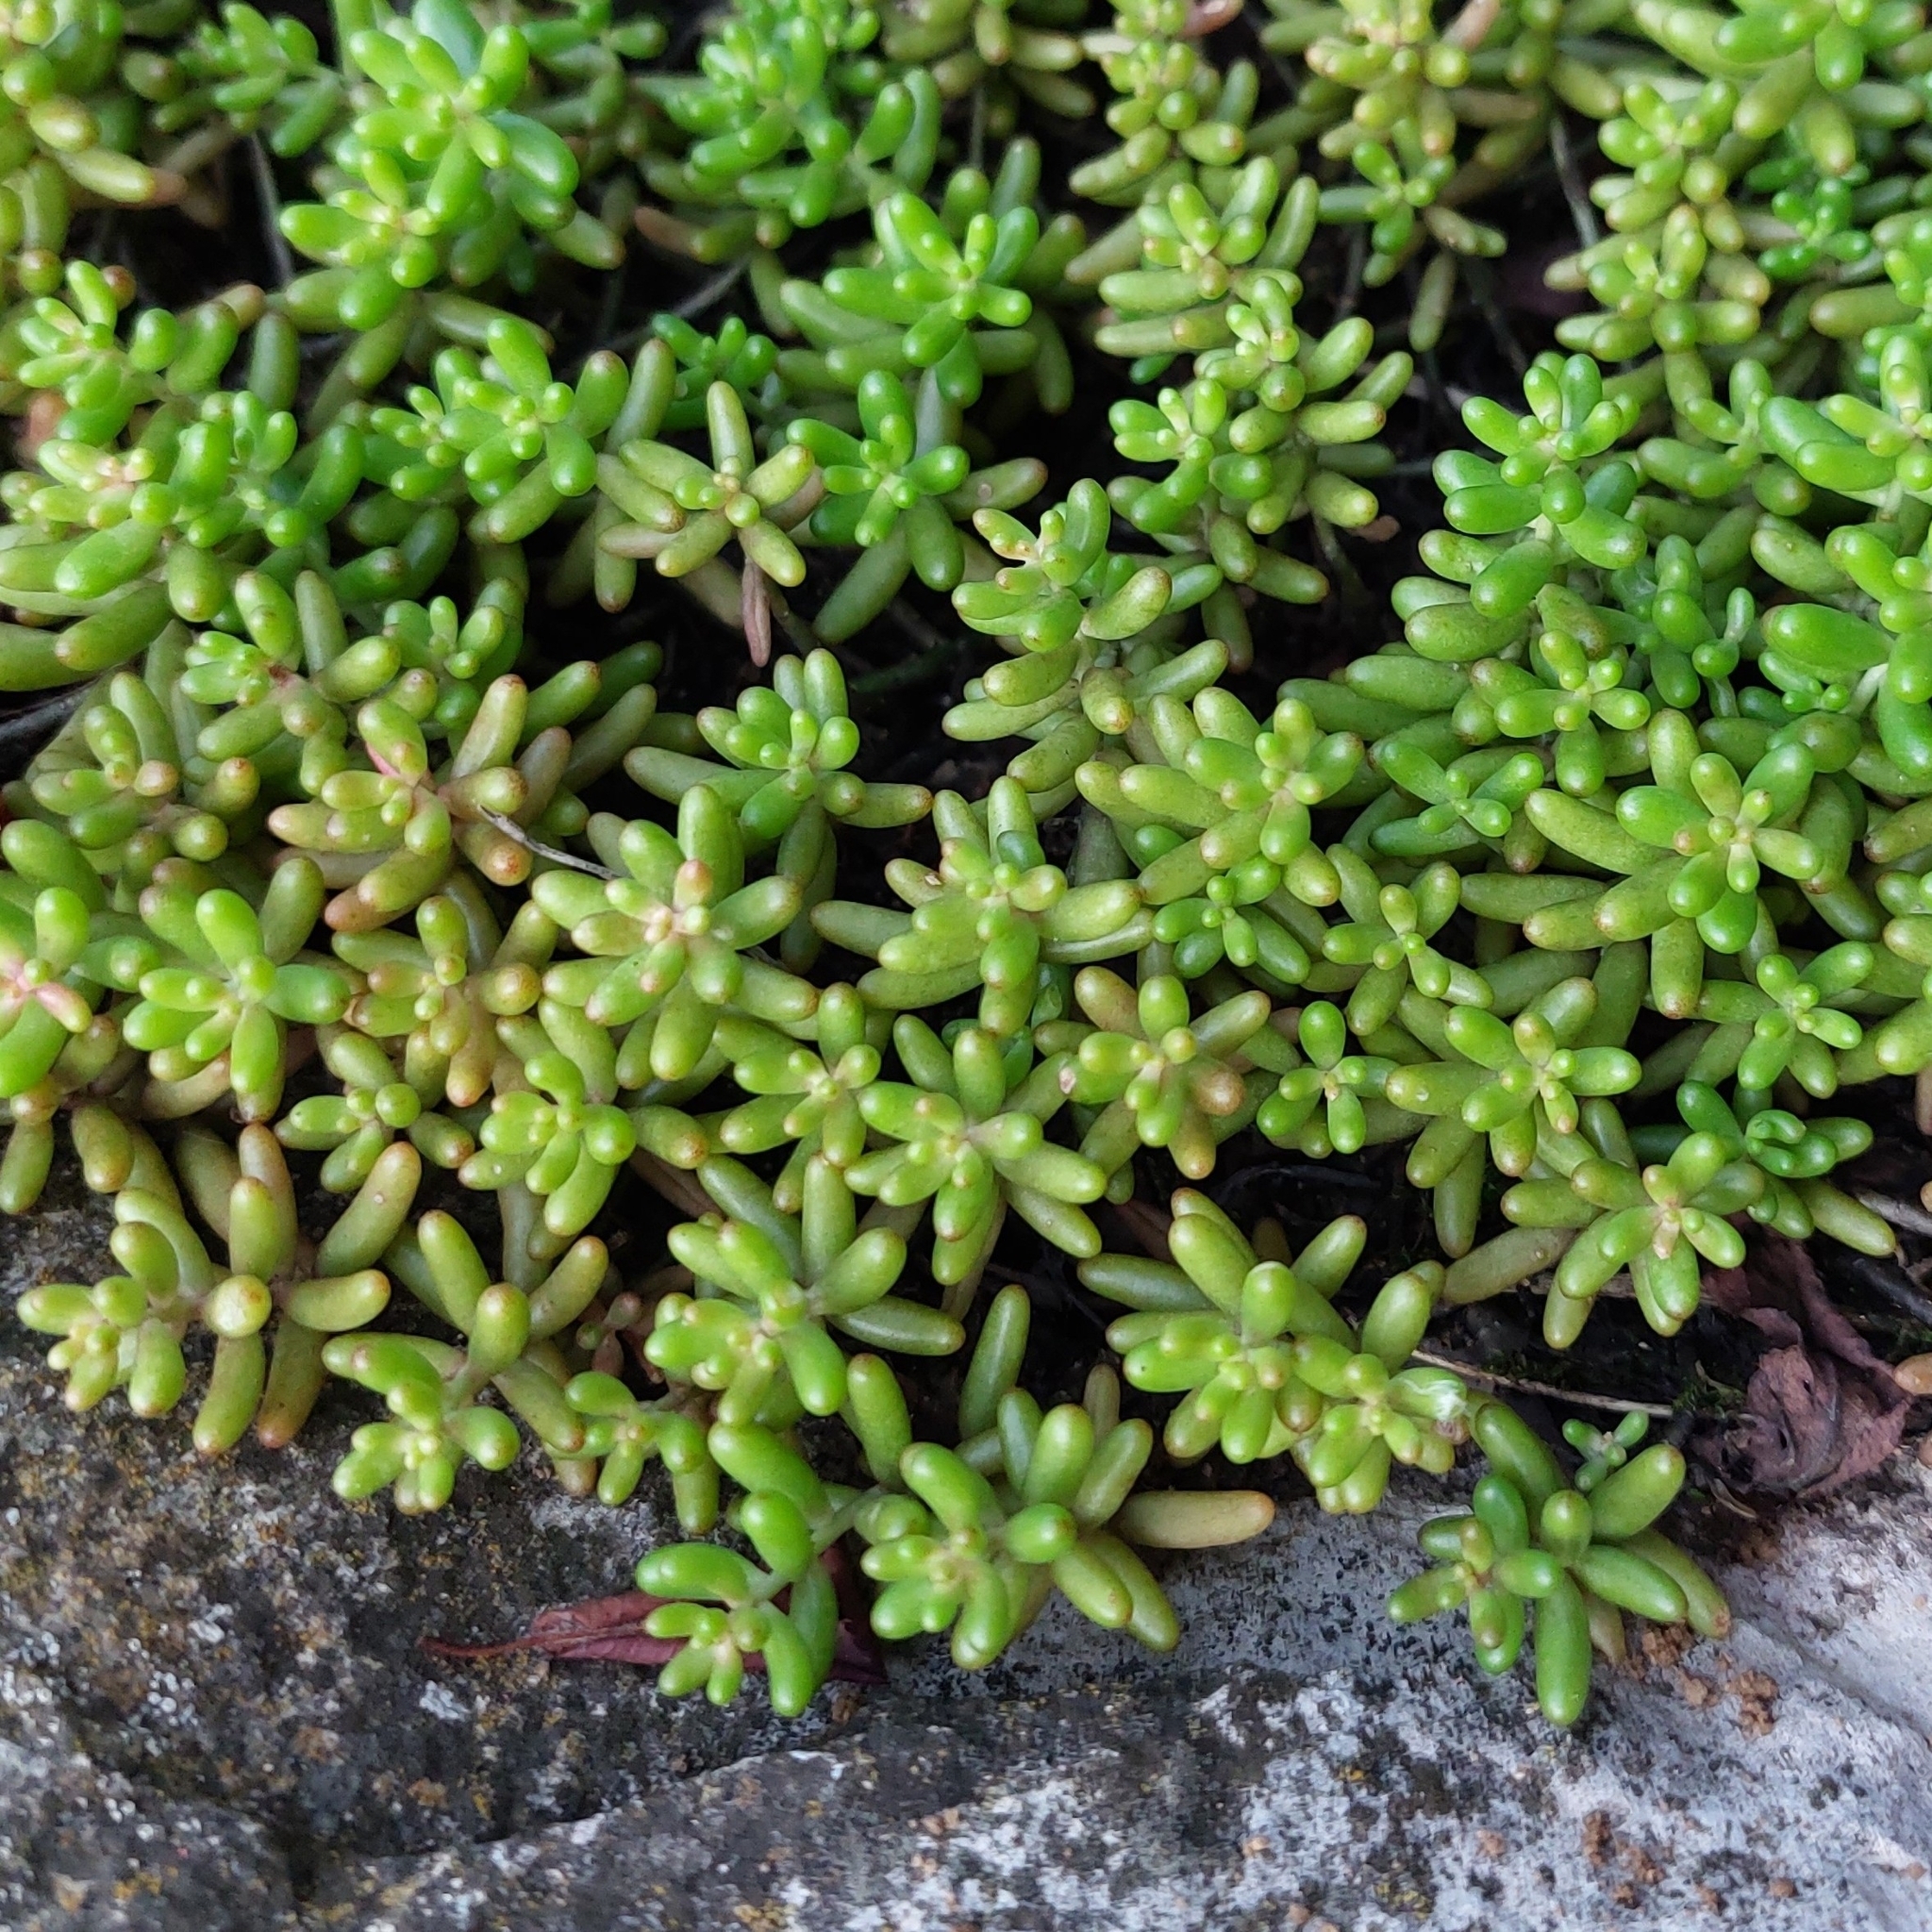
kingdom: Plantae
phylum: Tracheophyta
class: Magnoliopsida
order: Saxifragales
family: Crassulaceae
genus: Sedum
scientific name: Sedum album
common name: White stonecrop
